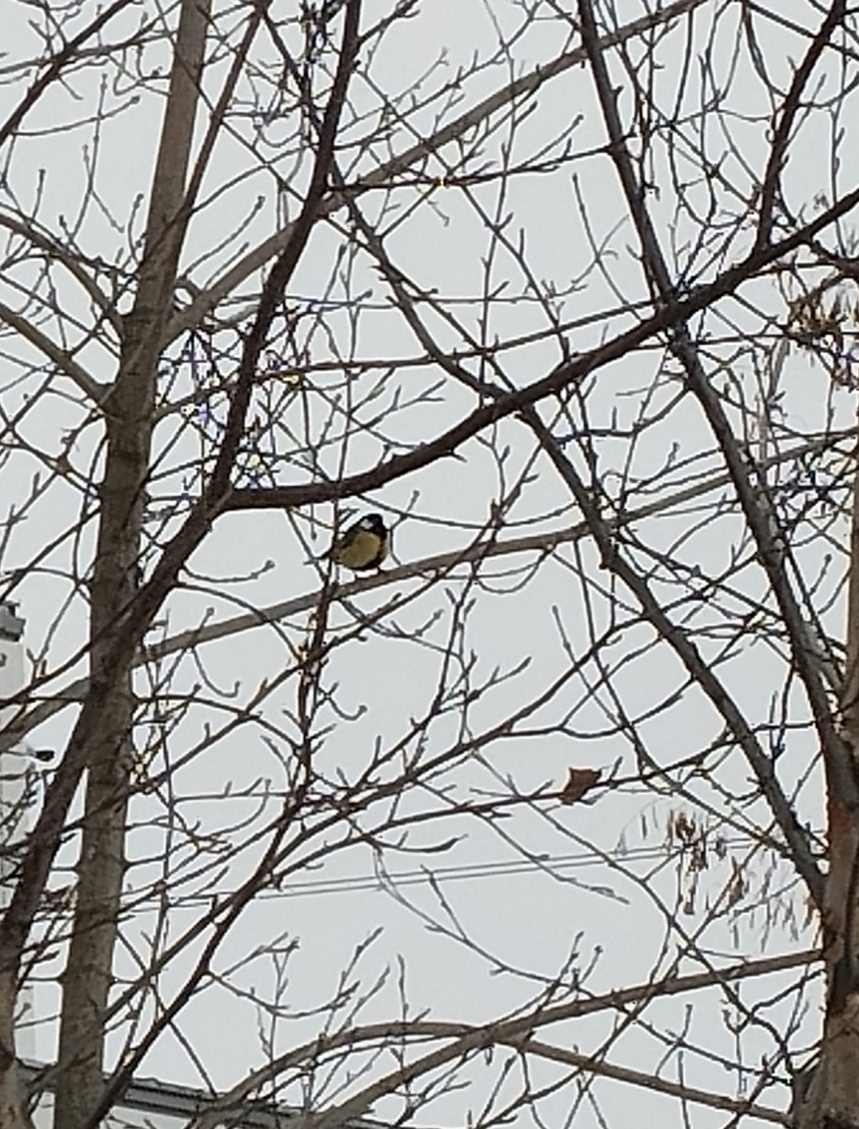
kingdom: Animalia
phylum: Chordata
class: Aves
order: Passeriformes
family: Paridae
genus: Parus
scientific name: Parus major
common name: Great tit
